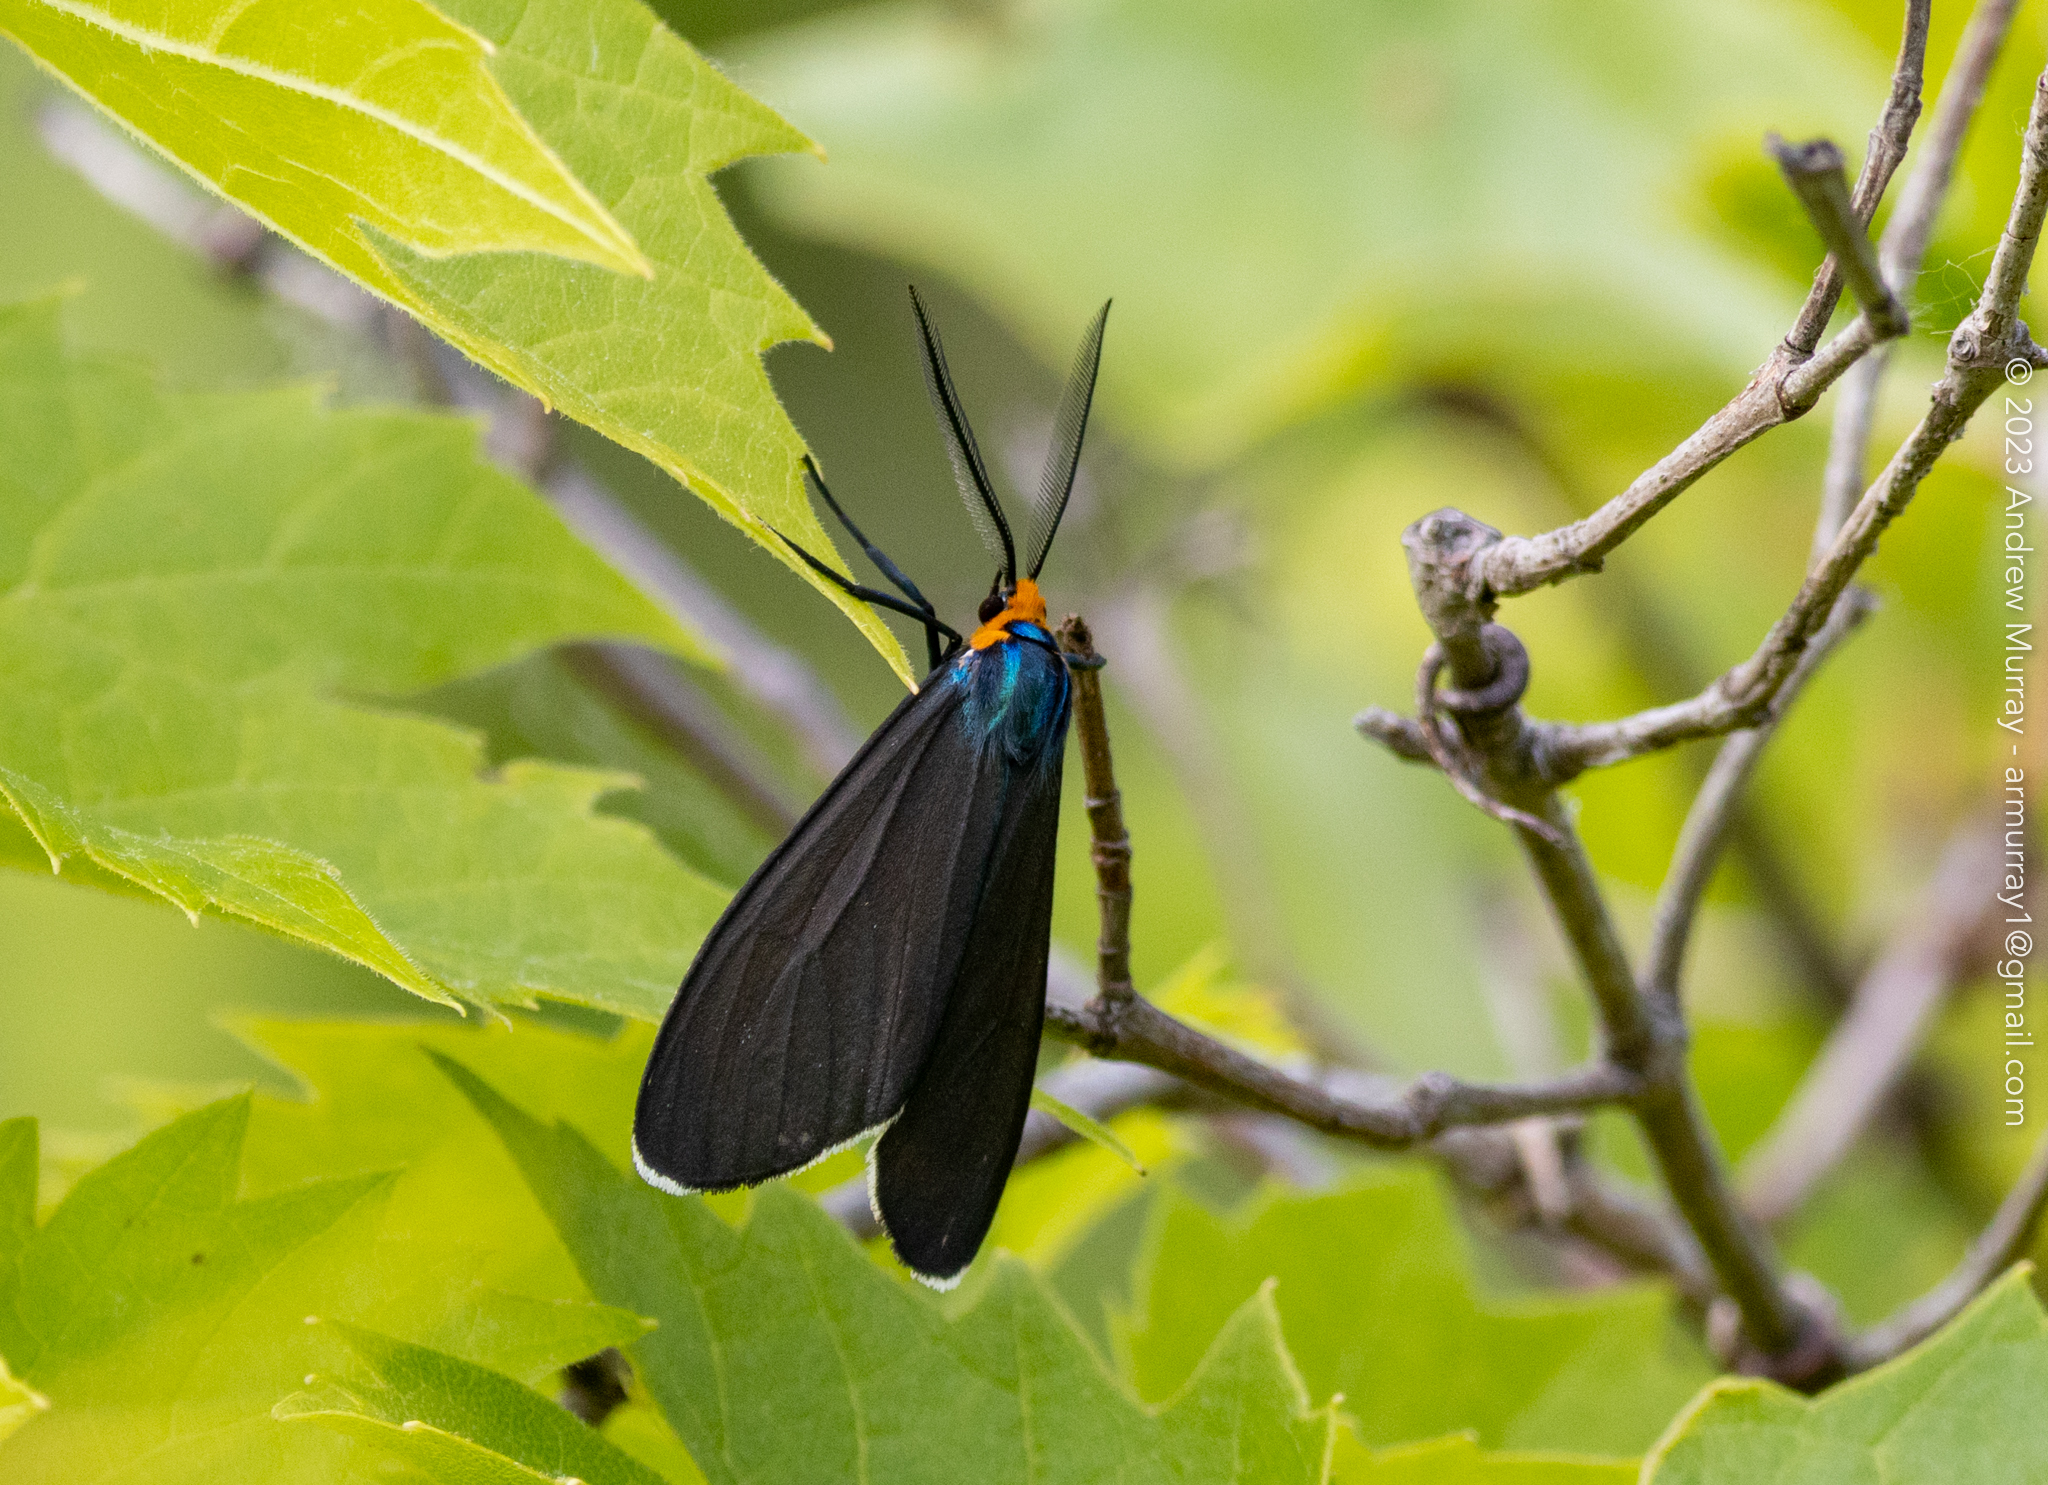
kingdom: Animalia
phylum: Arthropoda
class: Insecta
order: Lepidoptera
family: Erebidae
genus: Ctenucha
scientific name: Ctenucha virginica
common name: Virginia ctenucha moth
